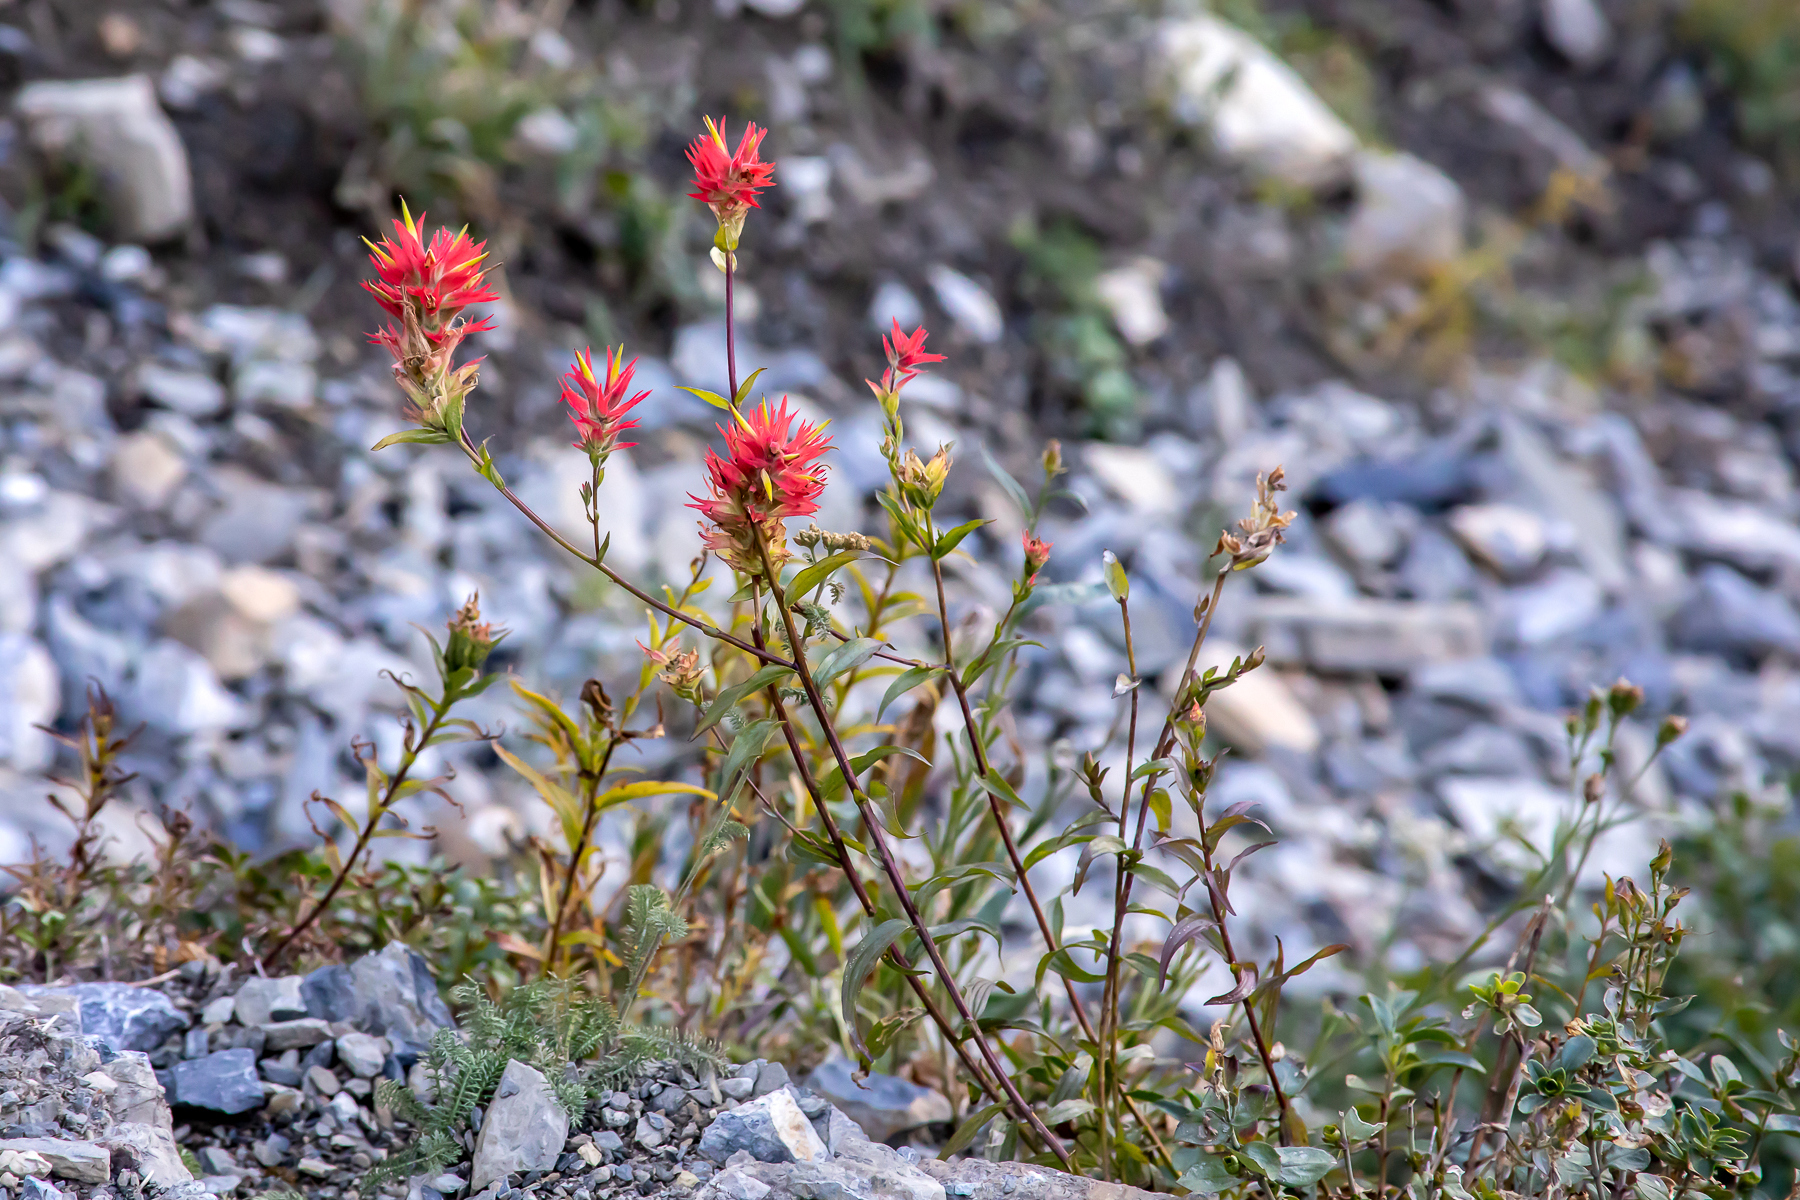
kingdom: Plantae
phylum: Tracheophyta
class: Magnoliopsida
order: Lamiales
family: Orobanchaceae
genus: Castilleja
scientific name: Castilleja miniata
